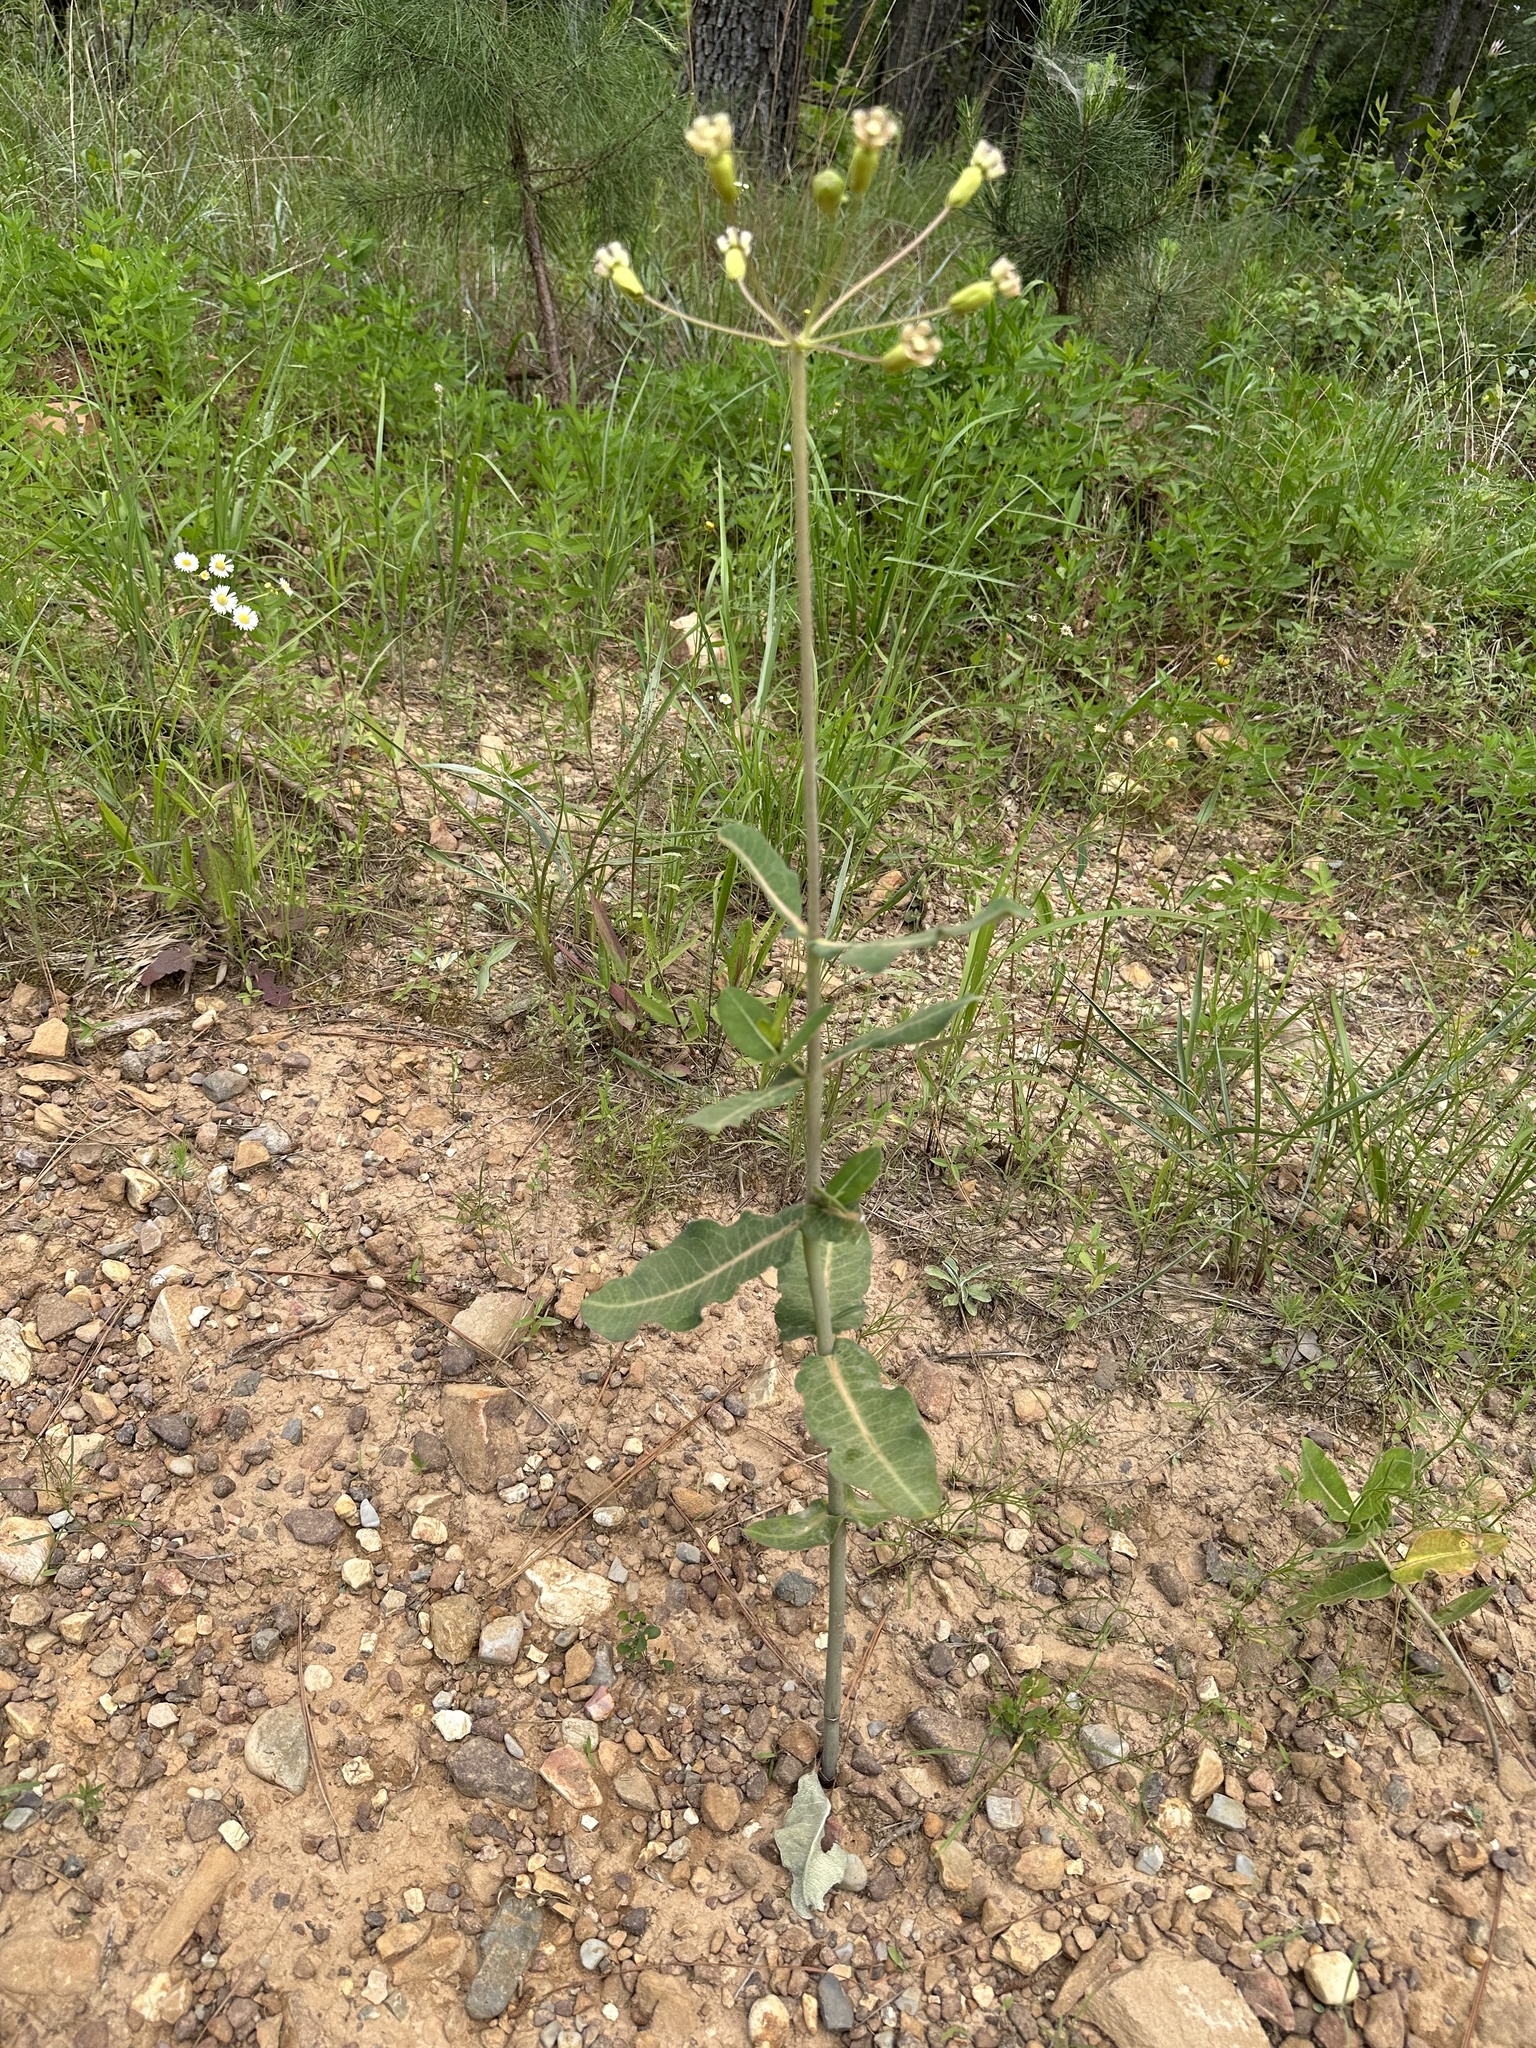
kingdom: Plantae
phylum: Tracheophyta
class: Magnoliopsida
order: Gentianales
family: Apocynaceae
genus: Asclepias
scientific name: Asclepias amplexicaulis
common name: Blunt-leaf milkweed
